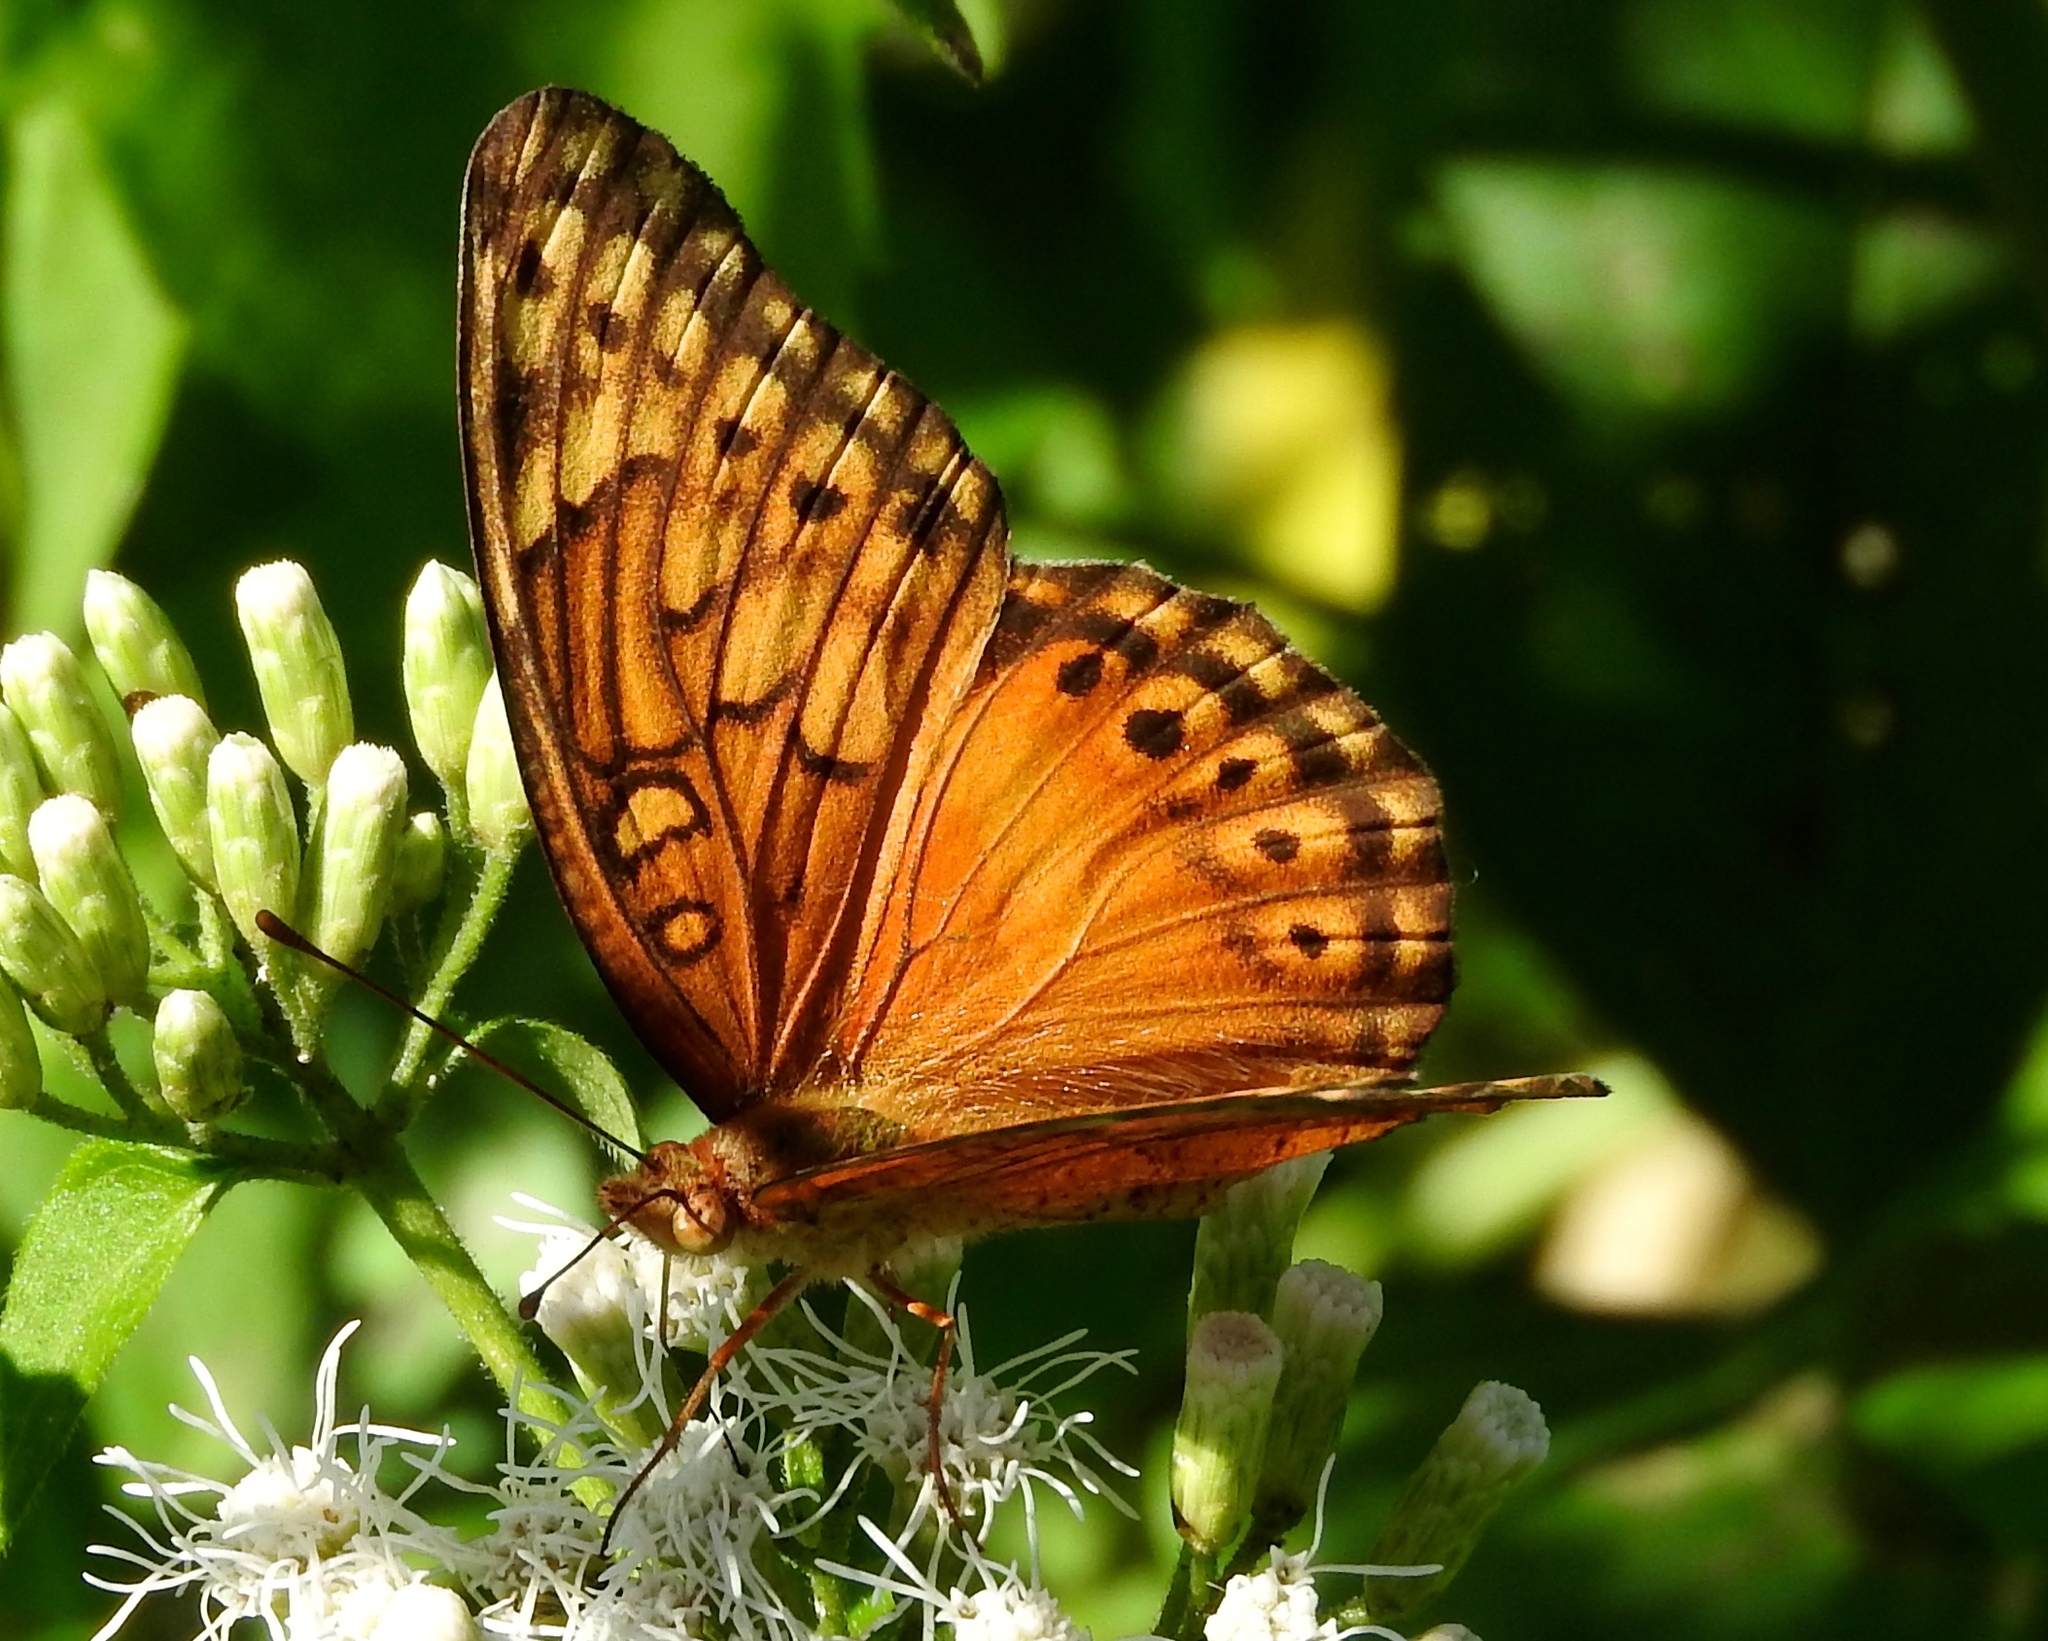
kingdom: Animalia
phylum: Arthropoda
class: Insecta
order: Lepidoptera
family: Nymphalidae
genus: Euptoieta
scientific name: Euptoieta hegesia
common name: Mexican fritillary
